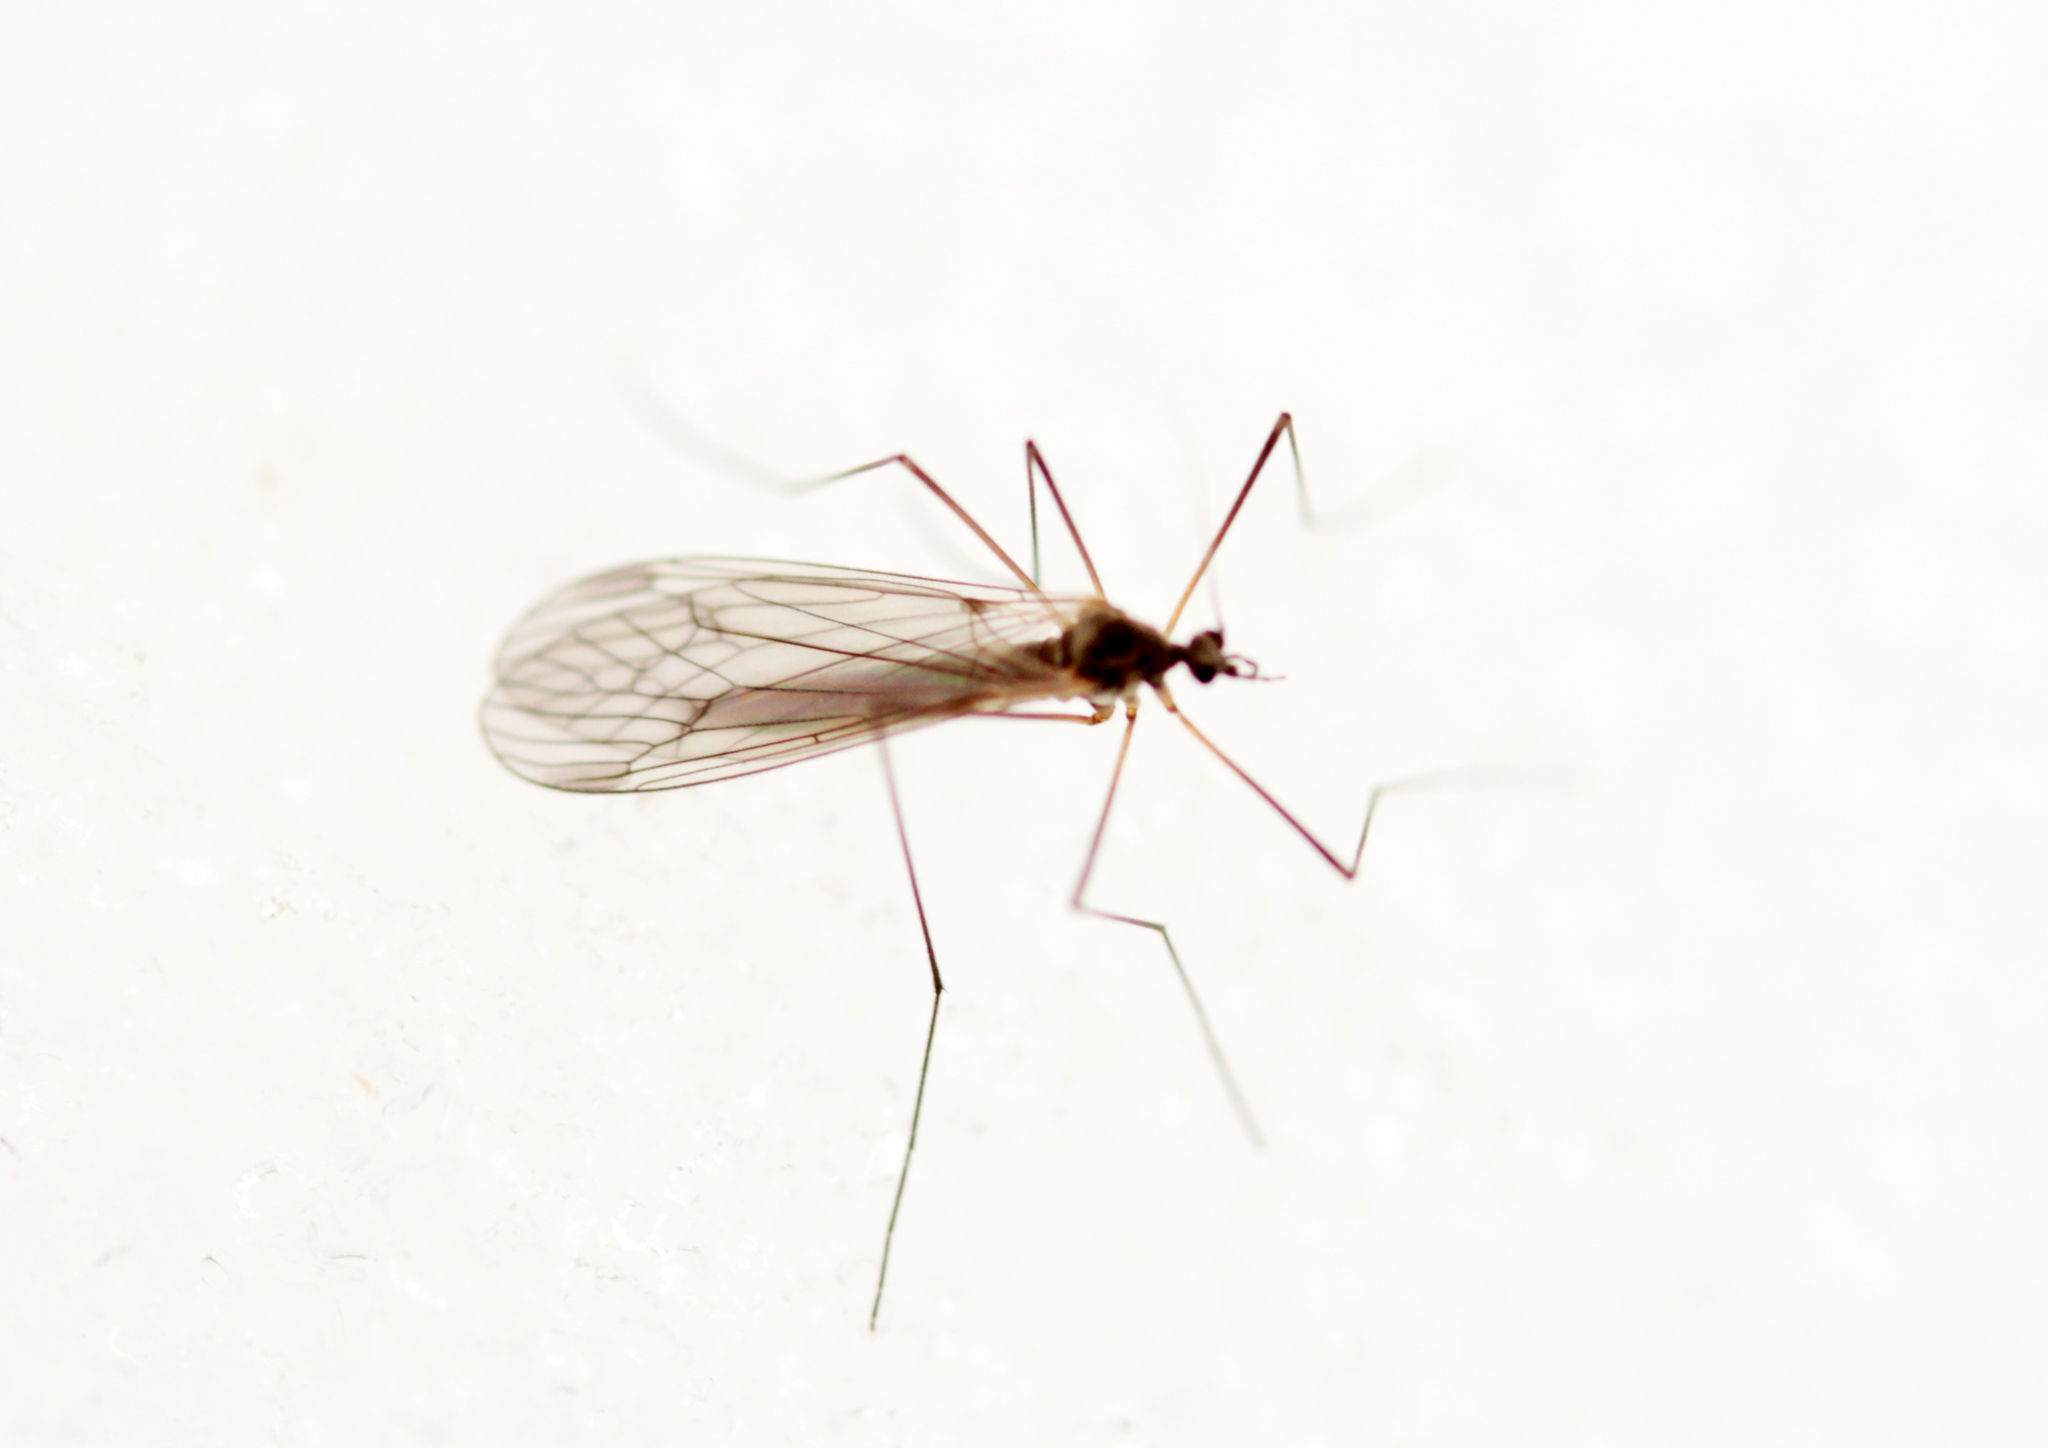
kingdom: Animalia
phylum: Arthropoda
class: Insecta
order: Diptera
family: Trichoceridae
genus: Trichocera
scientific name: Trichocera
